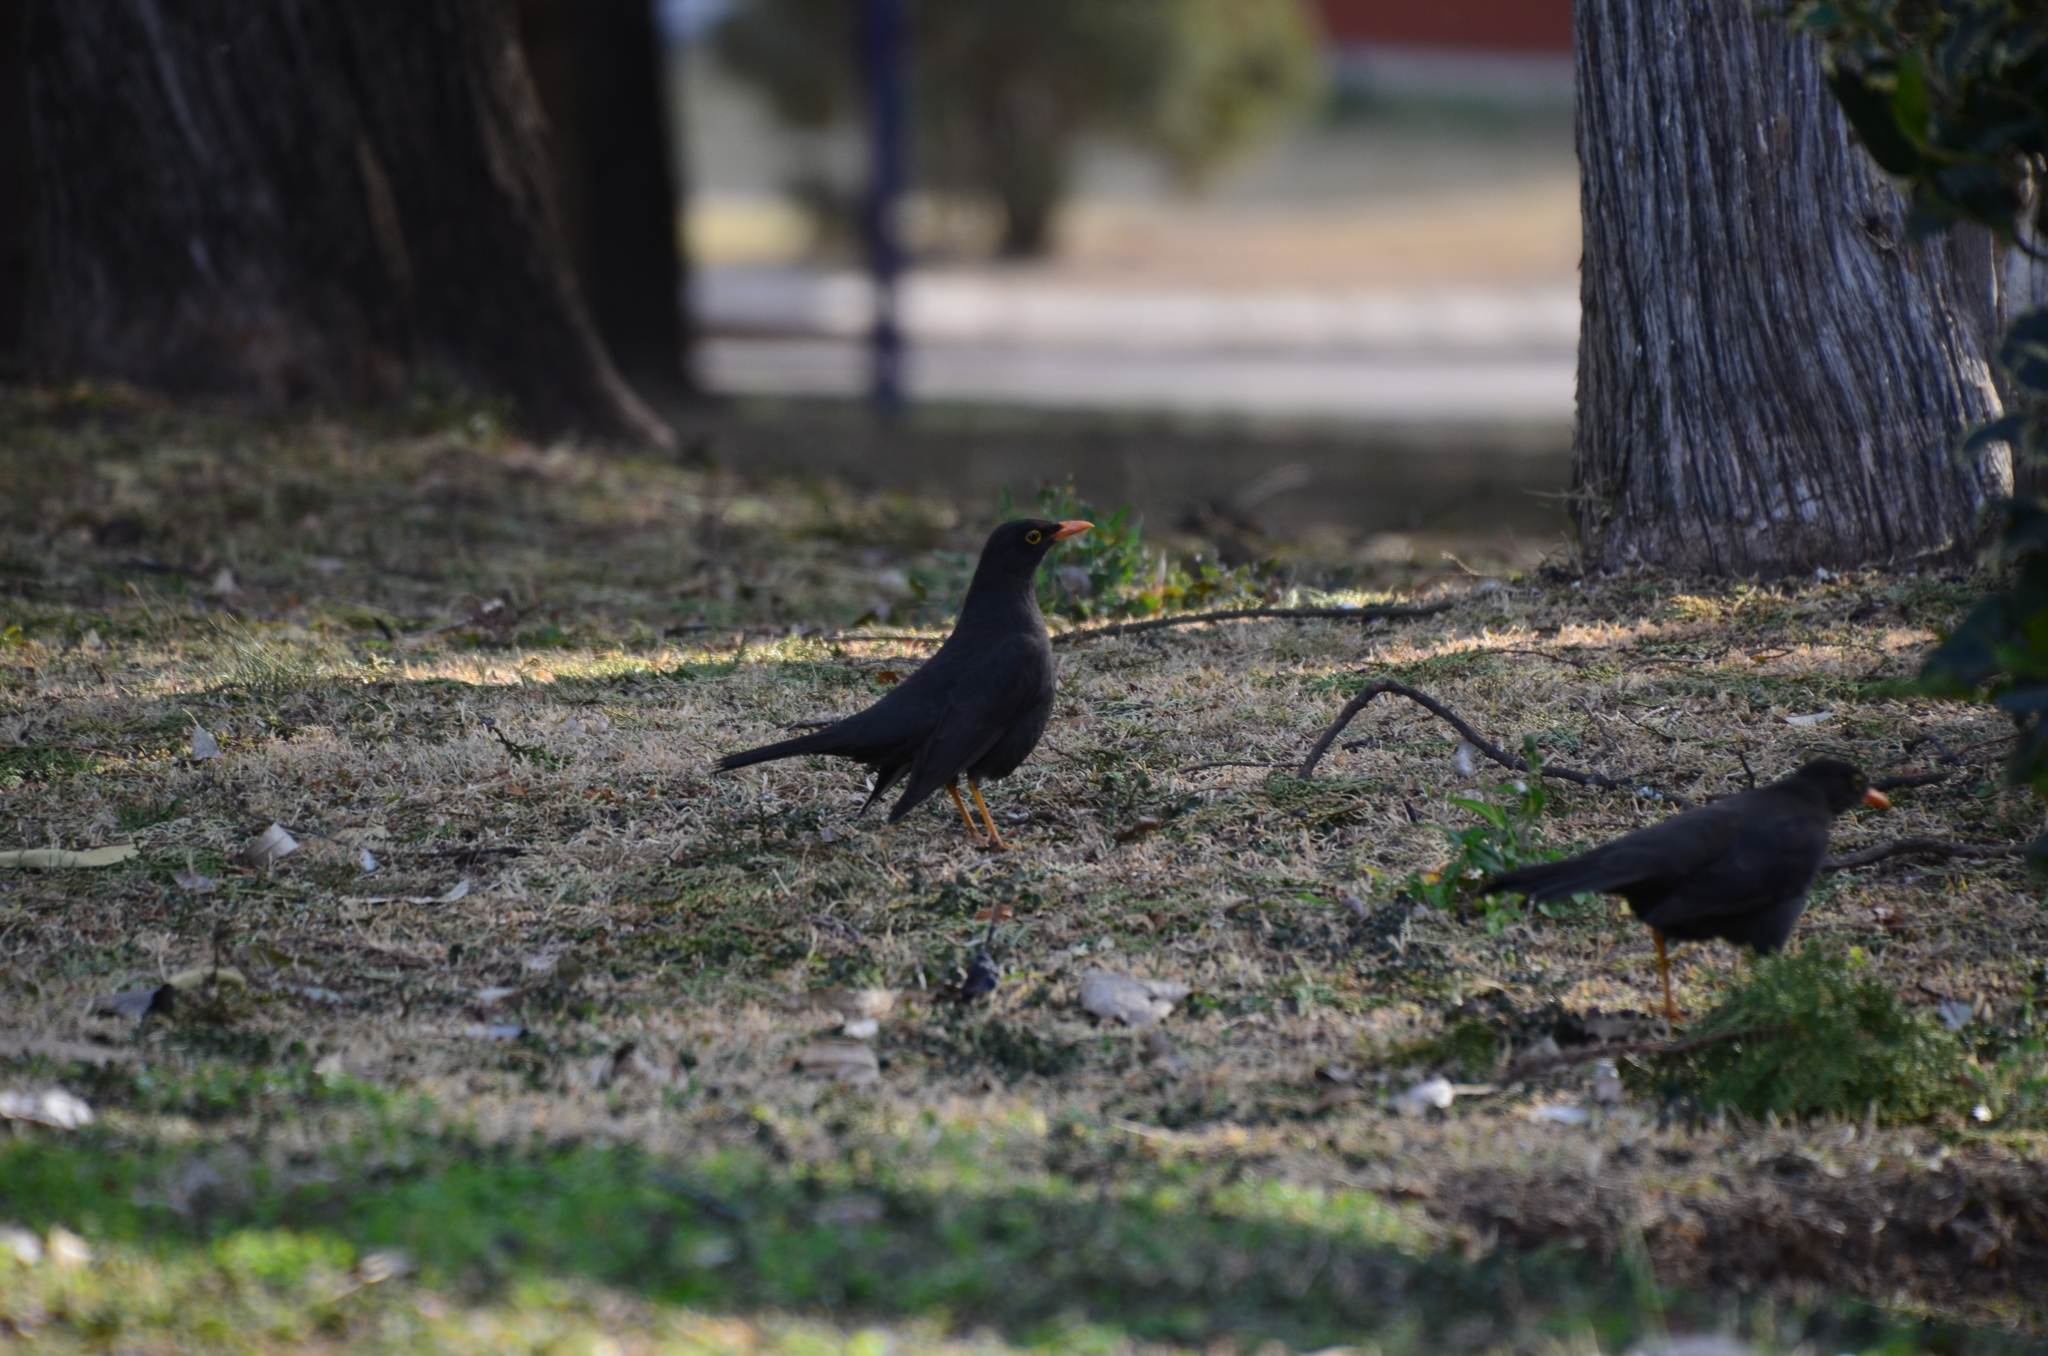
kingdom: Animalia
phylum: Chordata
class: Aves
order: Passeriformes
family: Turdidae
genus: Turdus
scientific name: Turdus chiguanco
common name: Chiguanco thrush
